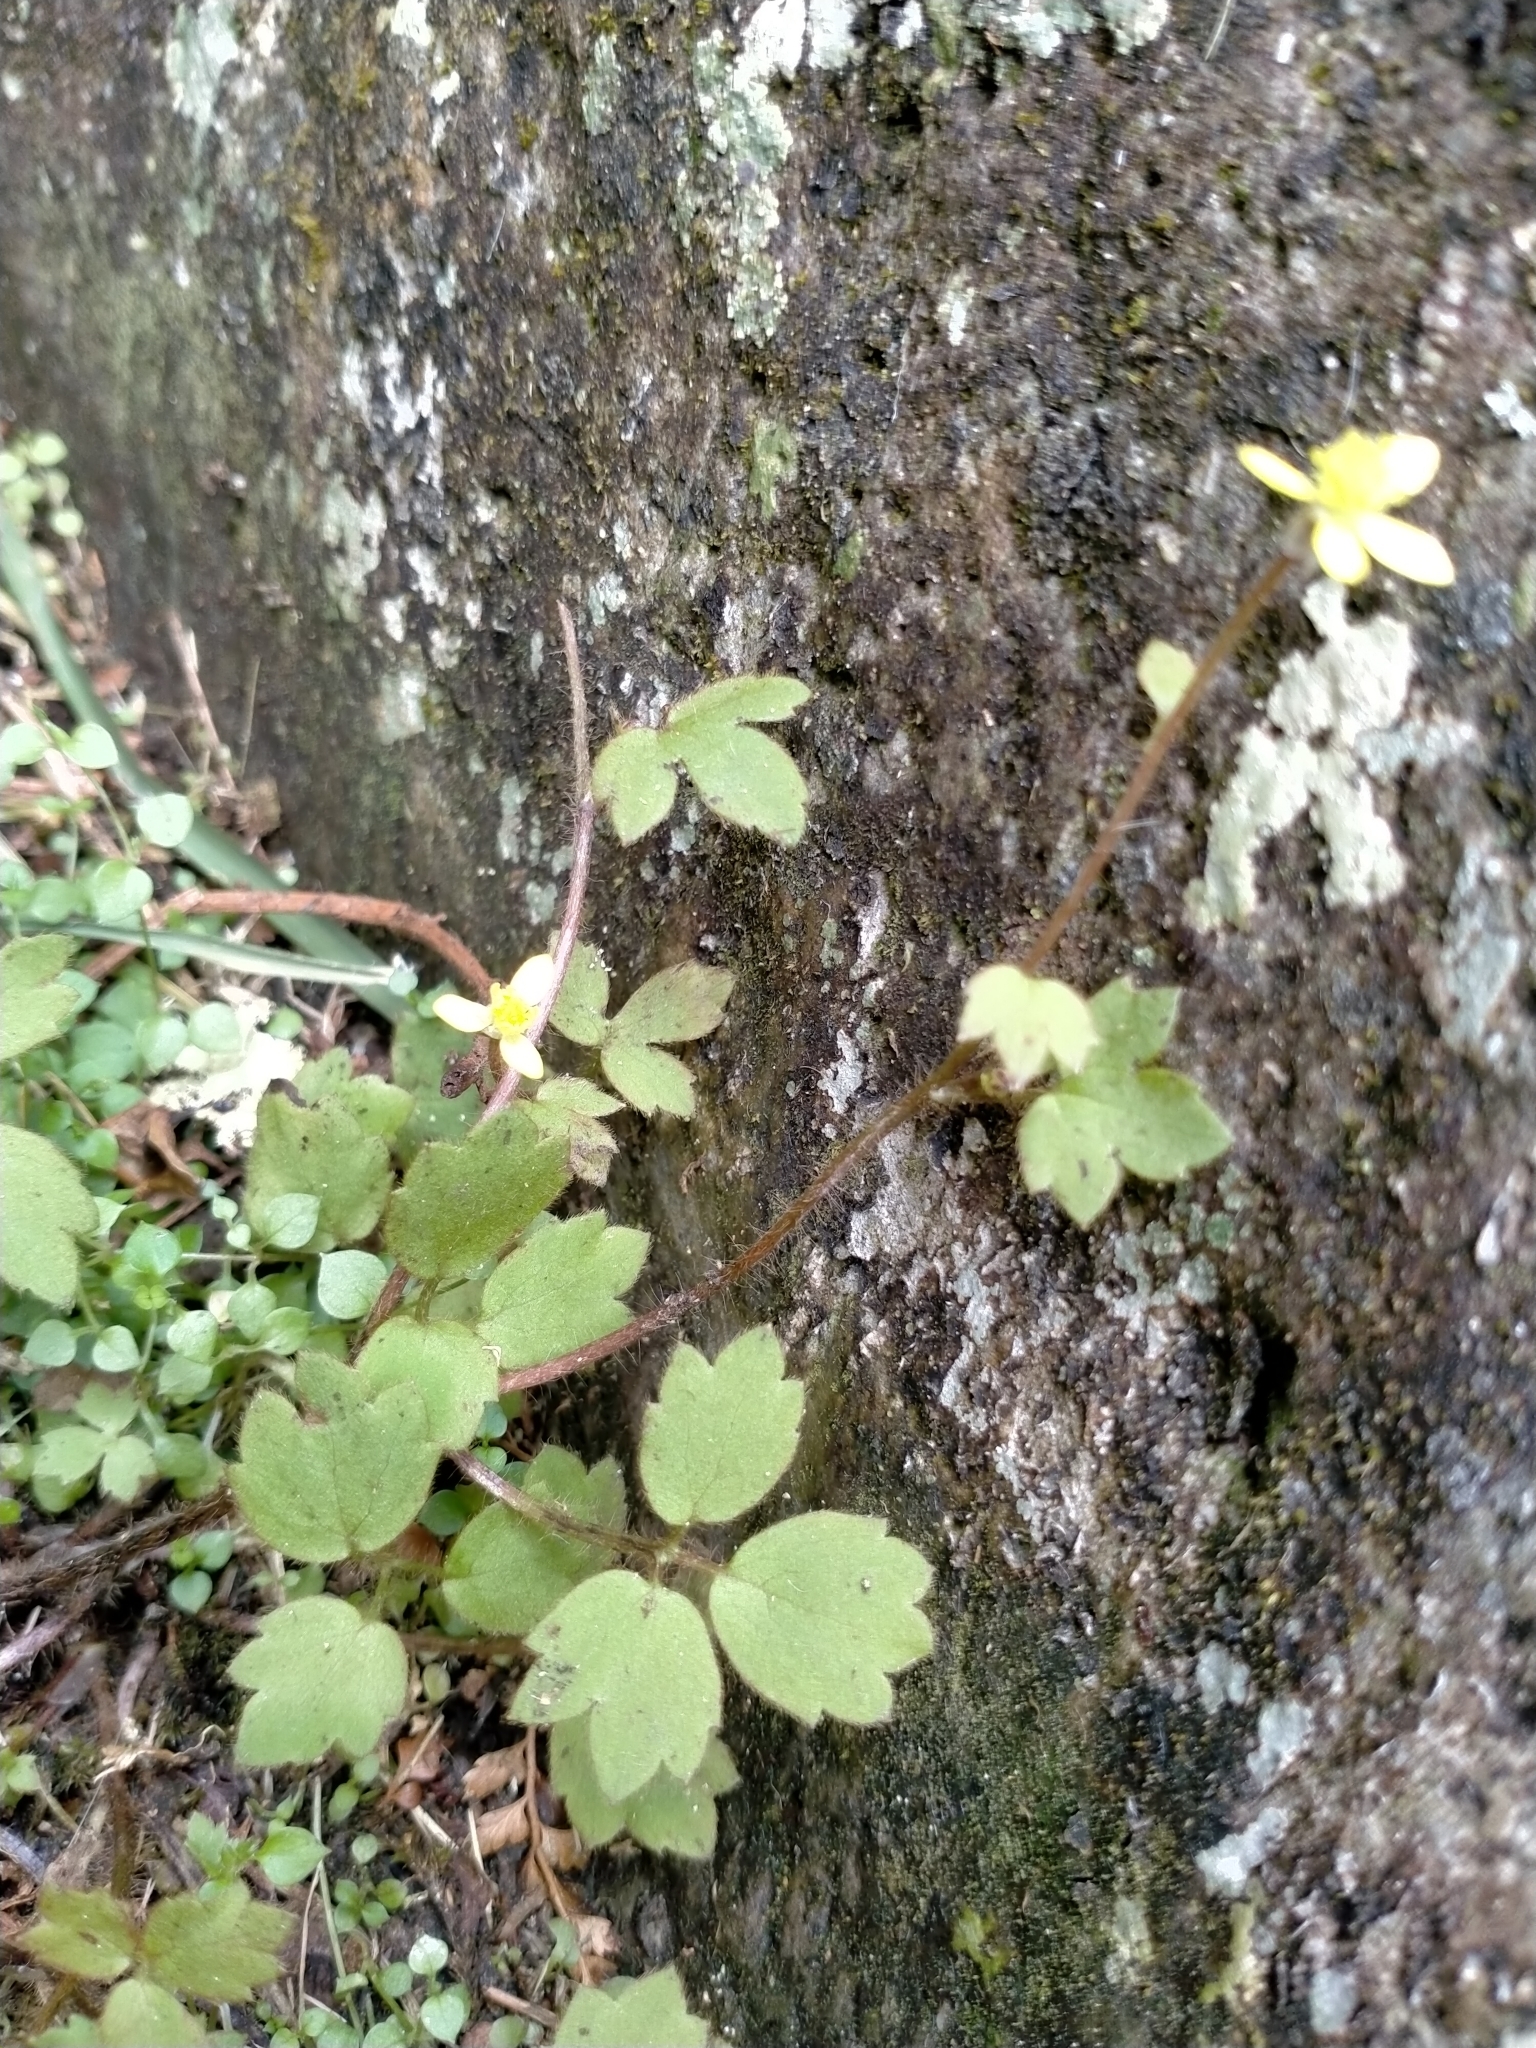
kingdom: Plantae
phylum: Tracheophyta
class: Magnoliopsida
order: Ranunculales
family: Ranunculaceae
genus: Ranunculus
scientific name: Ranunculus reflexus
